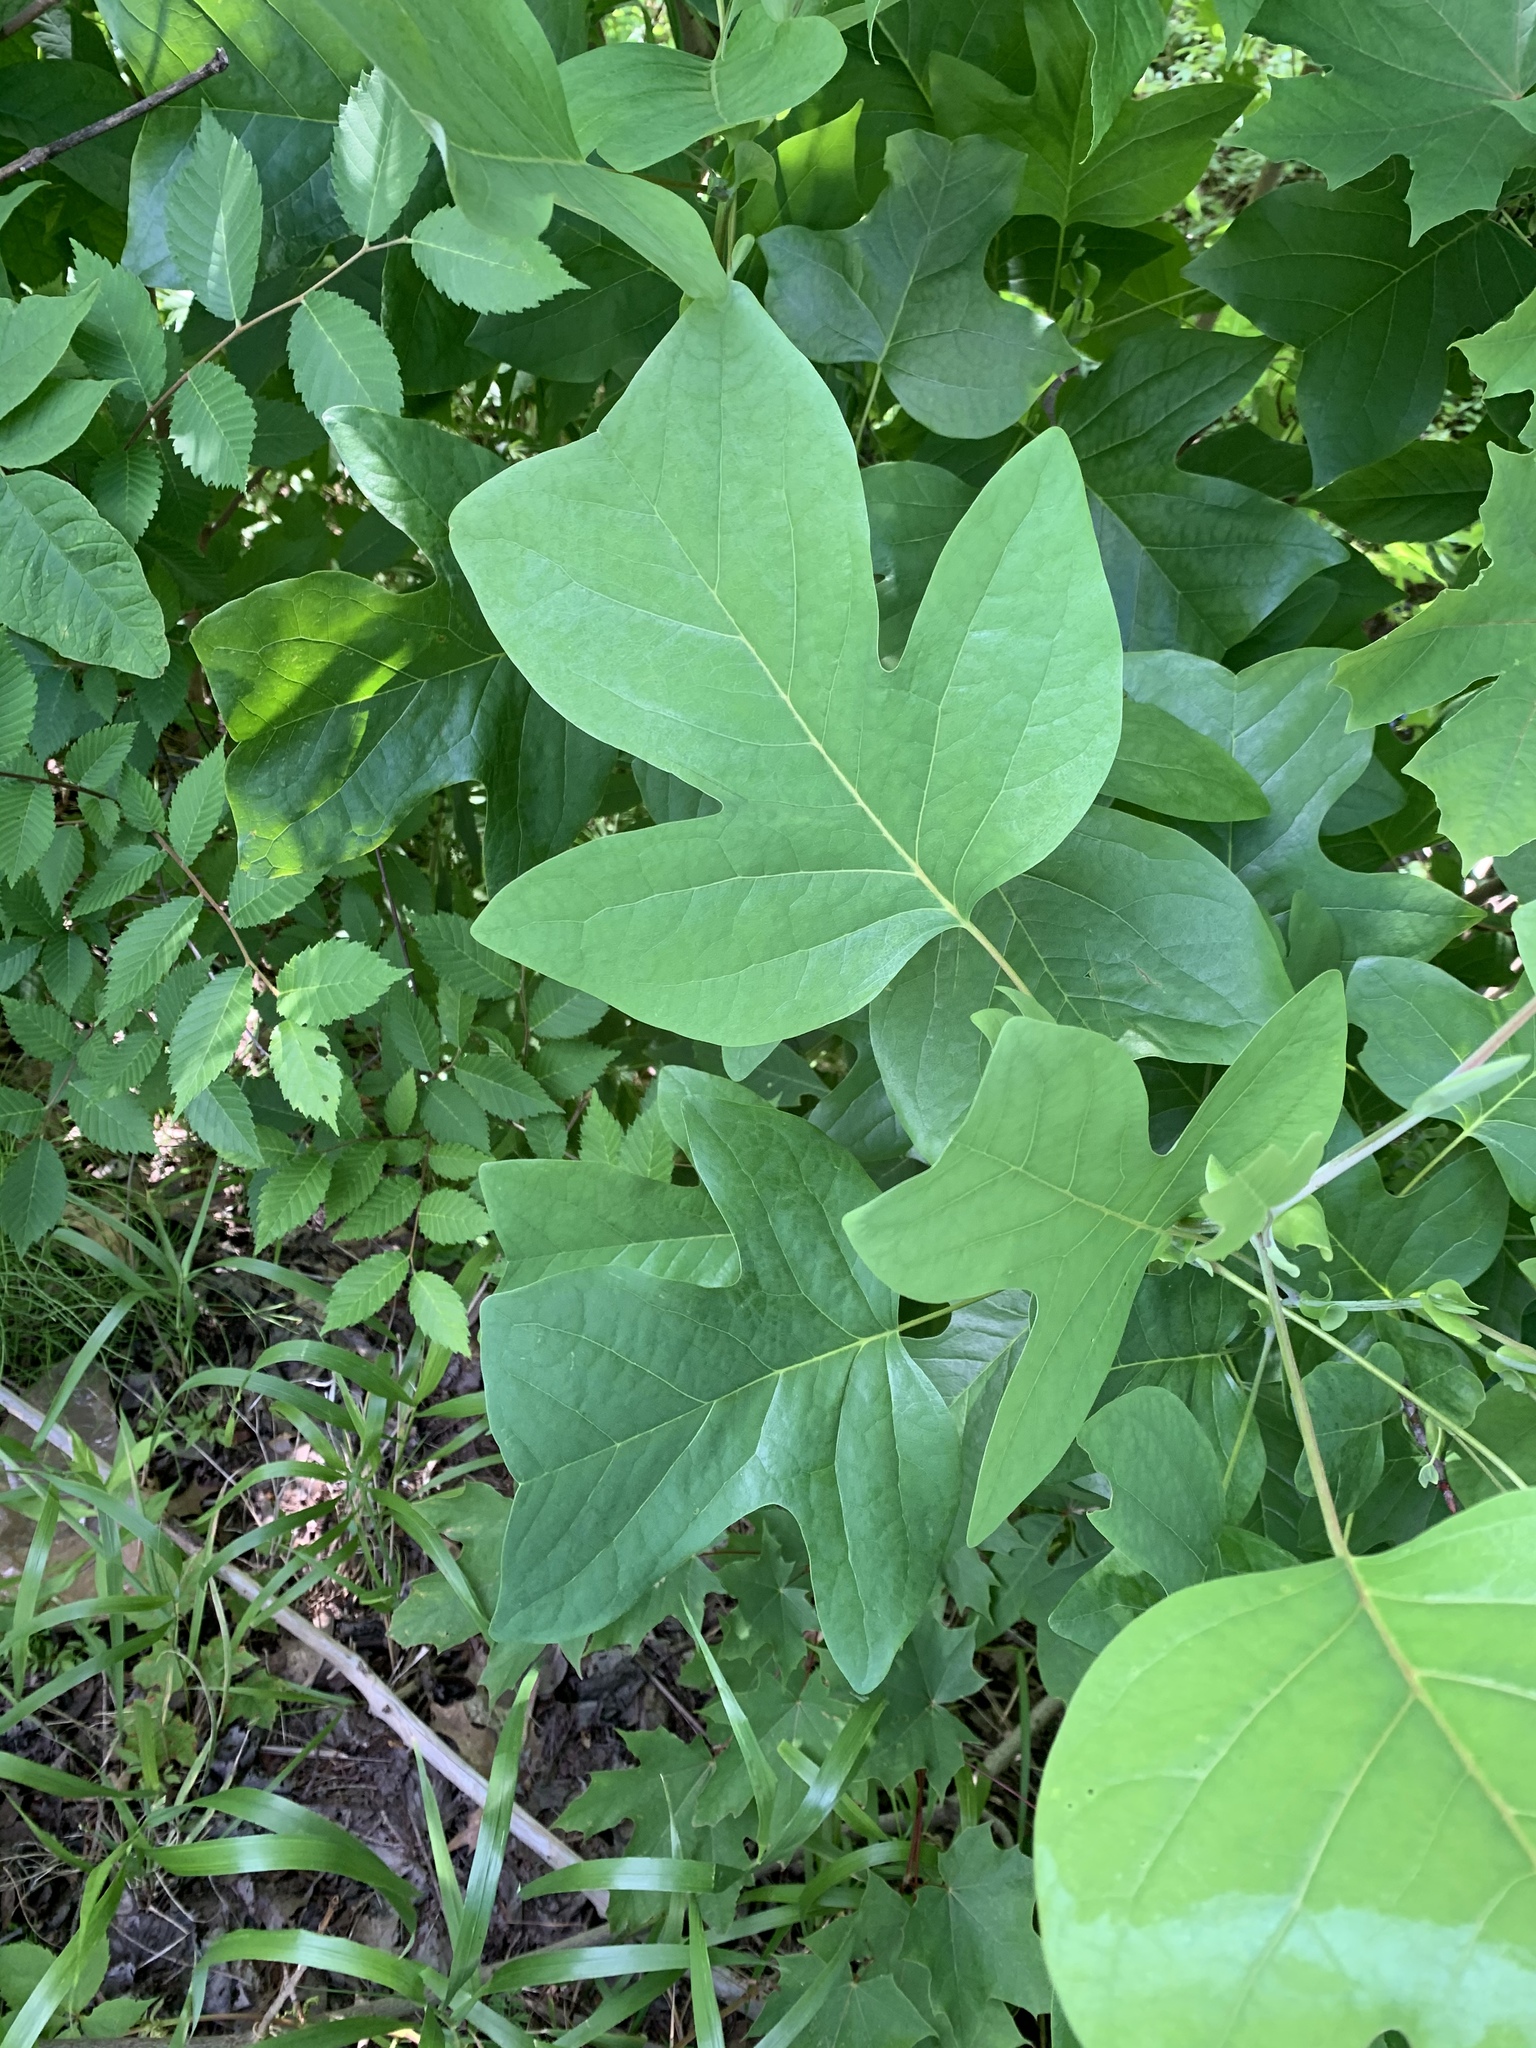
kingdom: Plantae
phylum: Tracheophyta
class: Magnoliopsida
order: Magnoliales
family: Magnoliaceae
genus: Liriodendron
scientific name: Liriodendron tulipifera
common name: Tulip tree
